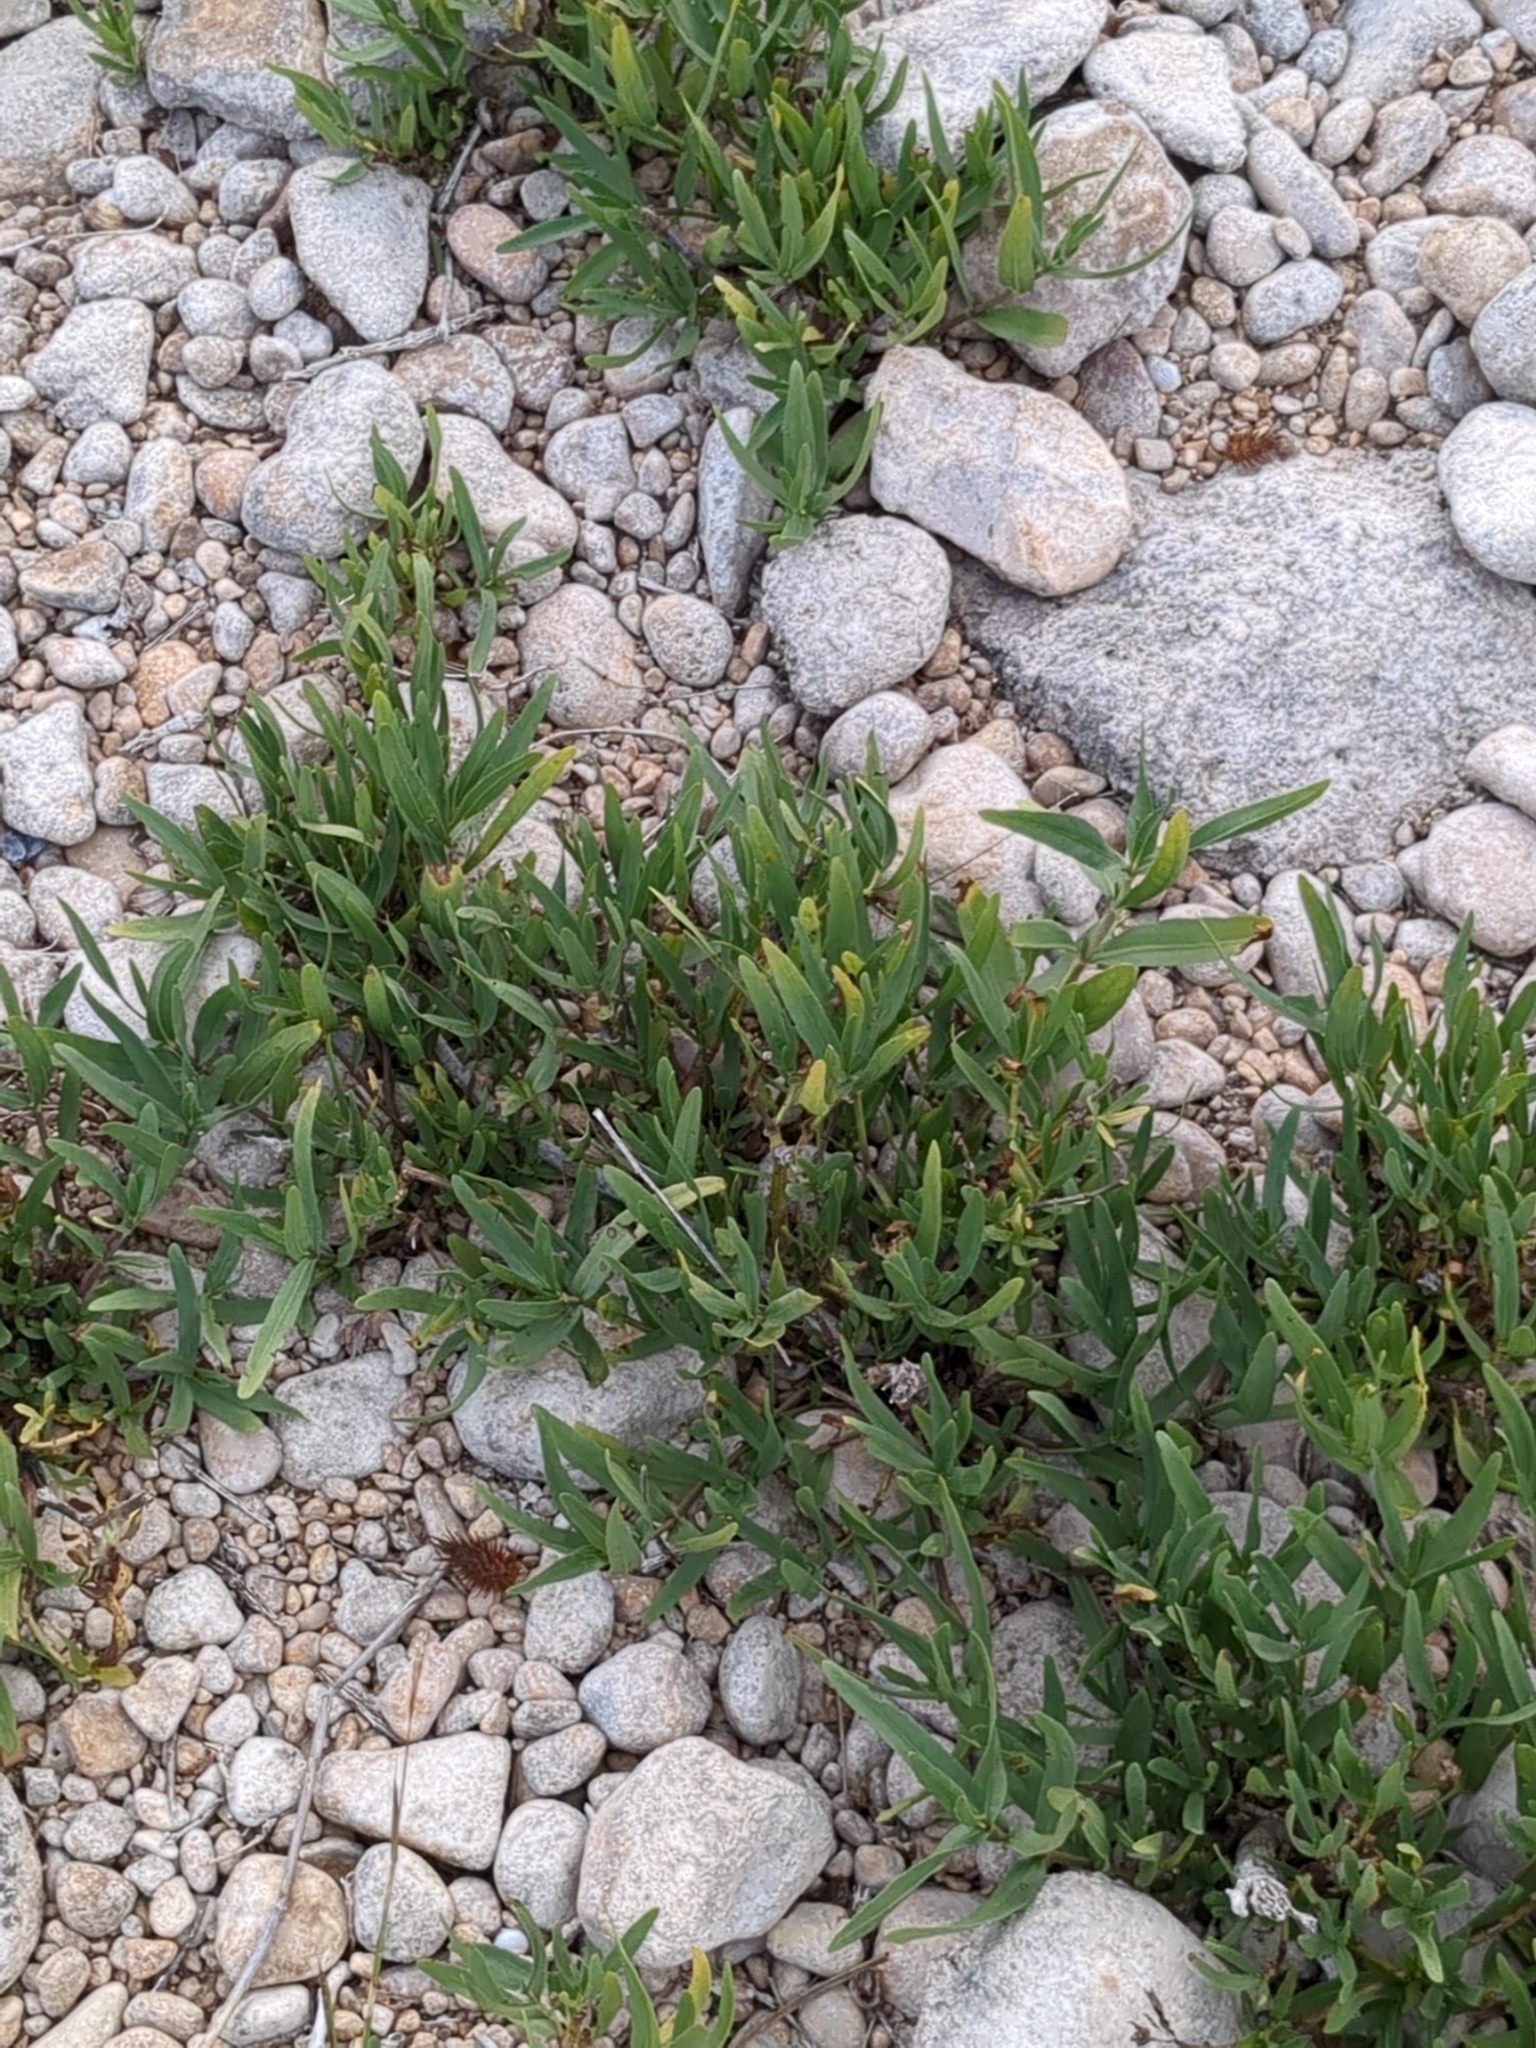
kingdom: Plantae
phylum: Tracheophyta
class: Magnoliopsida
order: Lamiales
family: Acanthaceae
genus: Dianthera
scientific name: Dianthera americana
